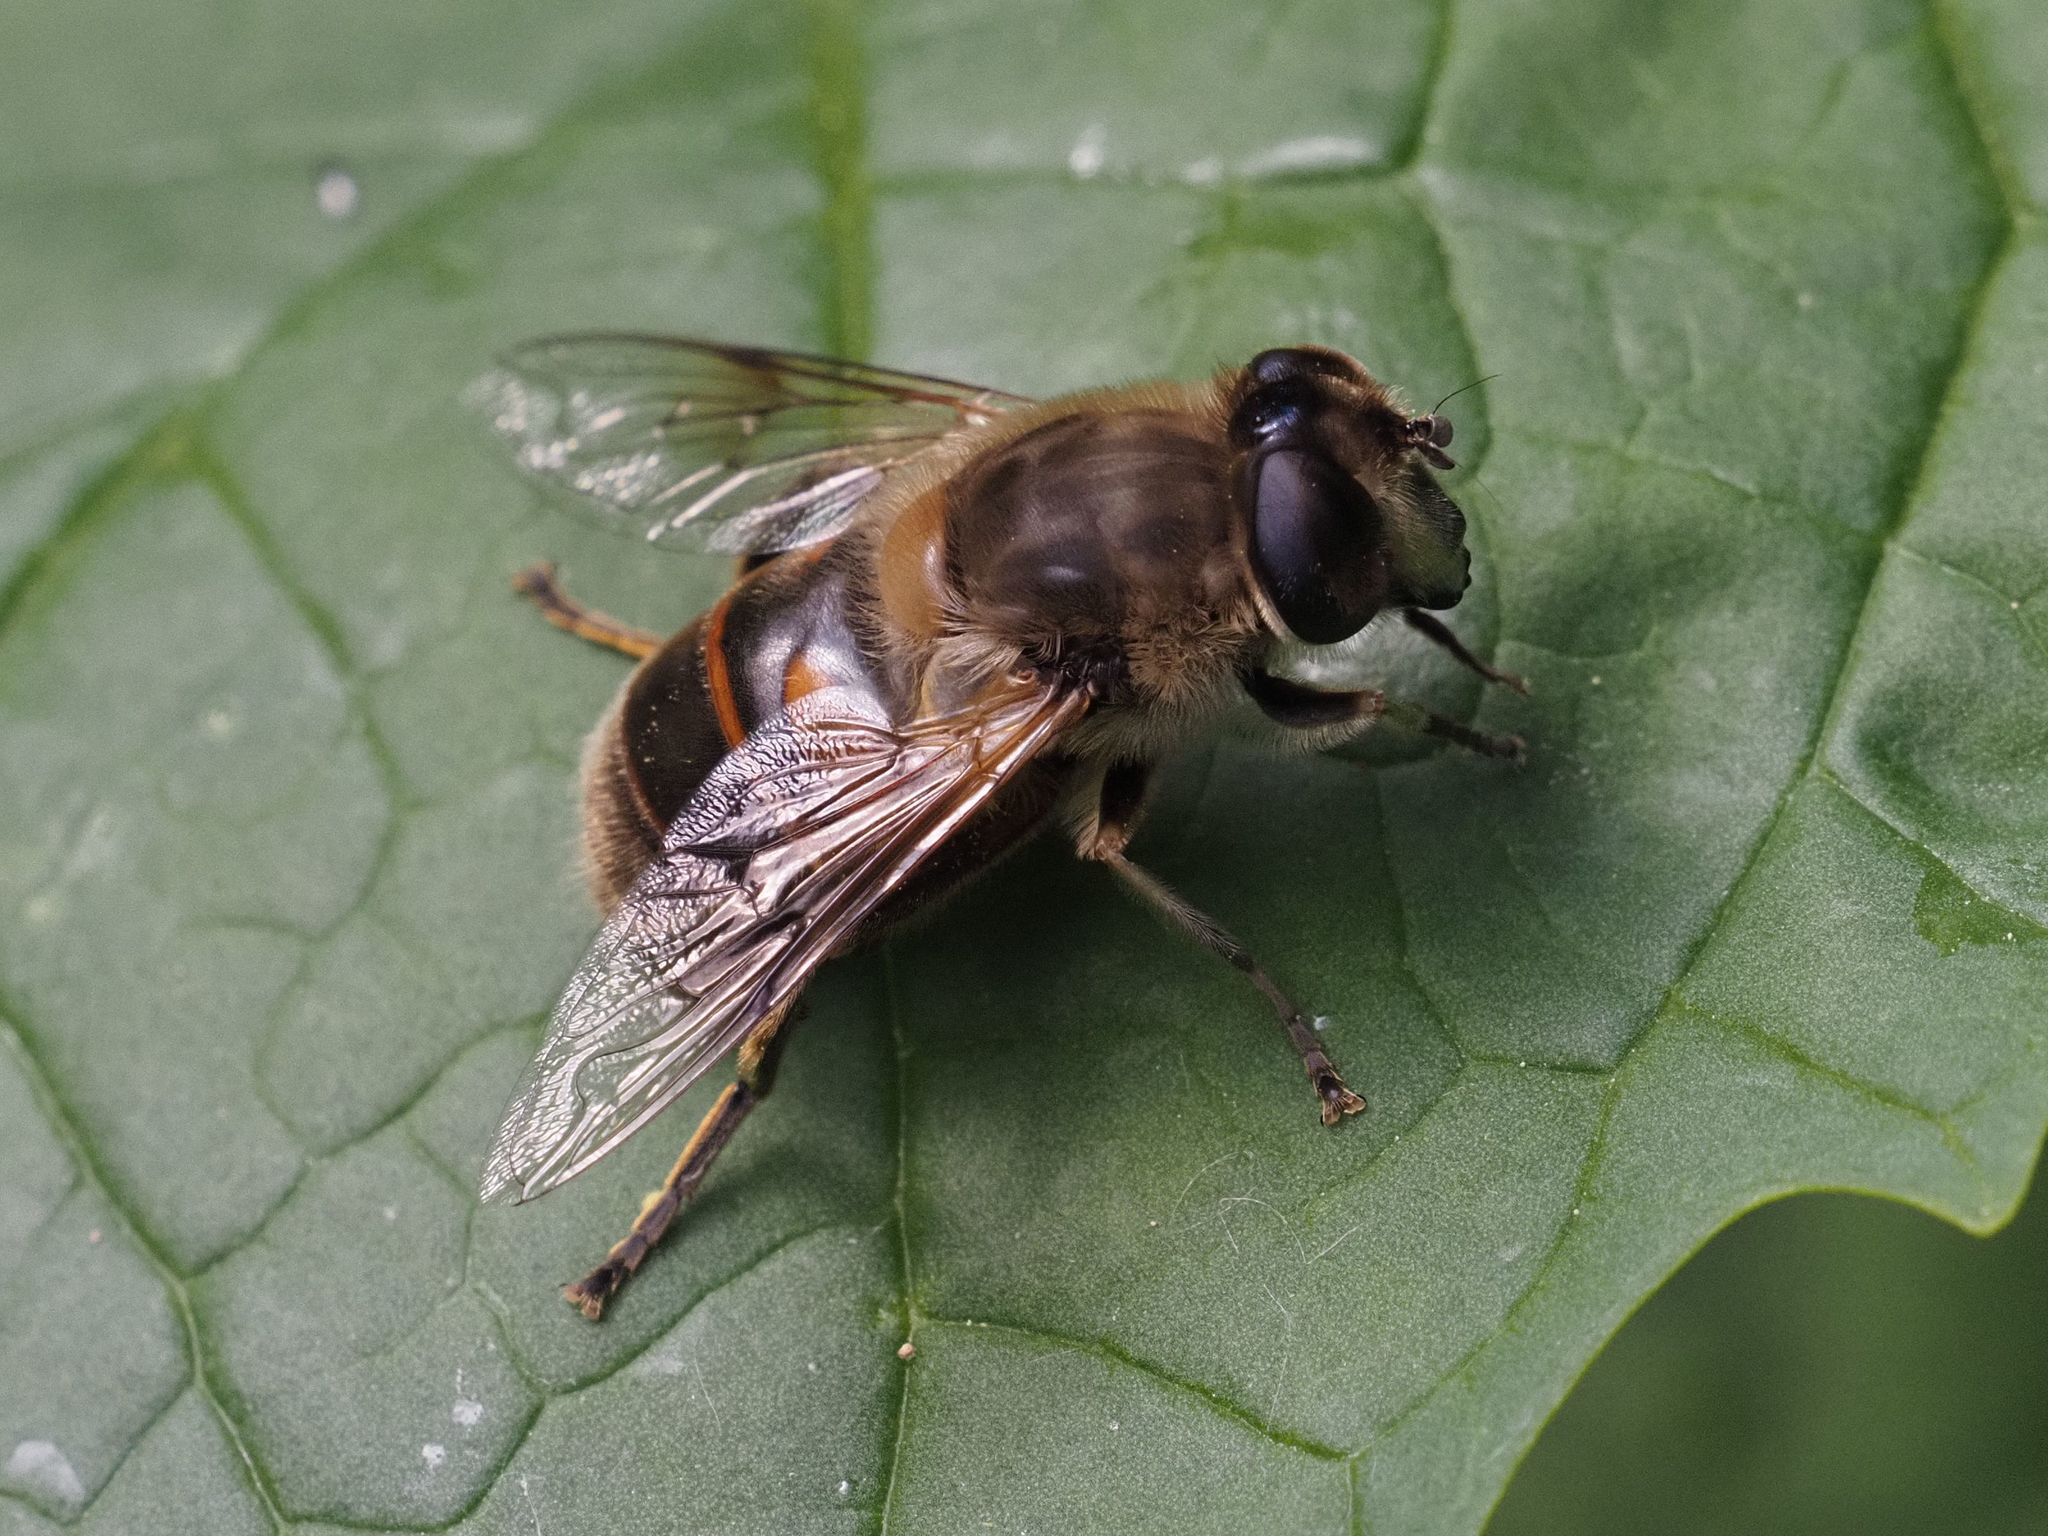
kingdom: Animalia
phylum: Arthropoda
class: Insecta
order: Diptera
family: Syrphidae
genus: Eristalis
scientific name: Eristalis tenax
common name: Drone fly
